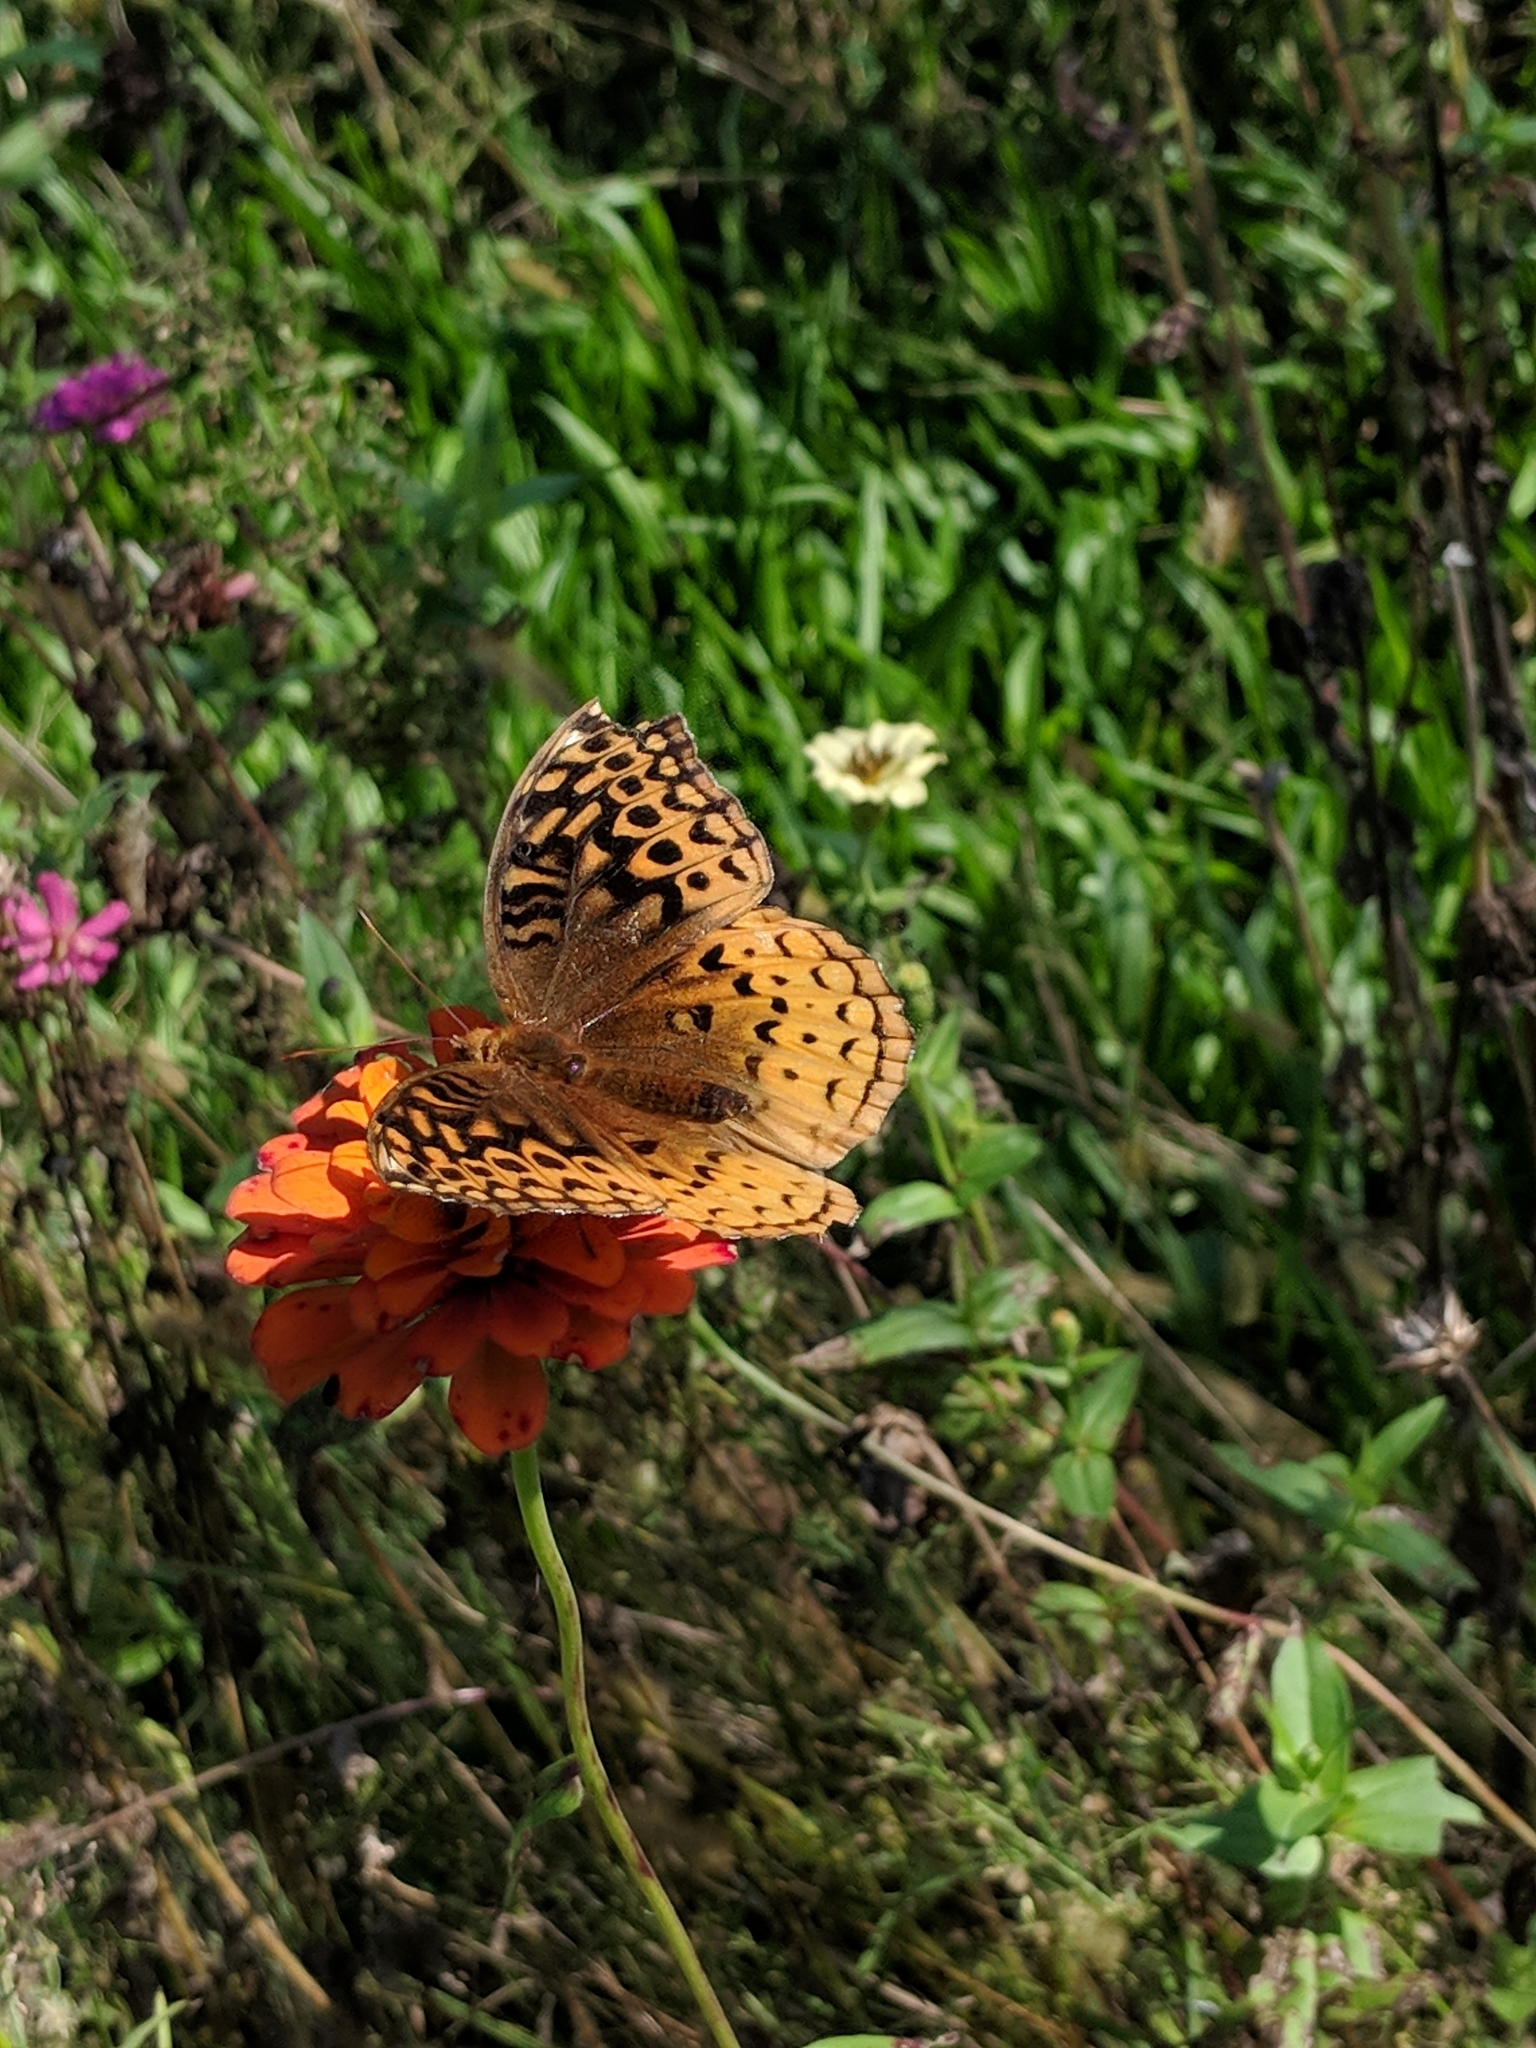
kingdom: Animalia
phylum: Arthropoda
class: Insecta
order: Lepidoptera
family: Nymphalidae
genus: Speyeria
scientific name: Speyeria cybele
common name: Great spangled fritillary
